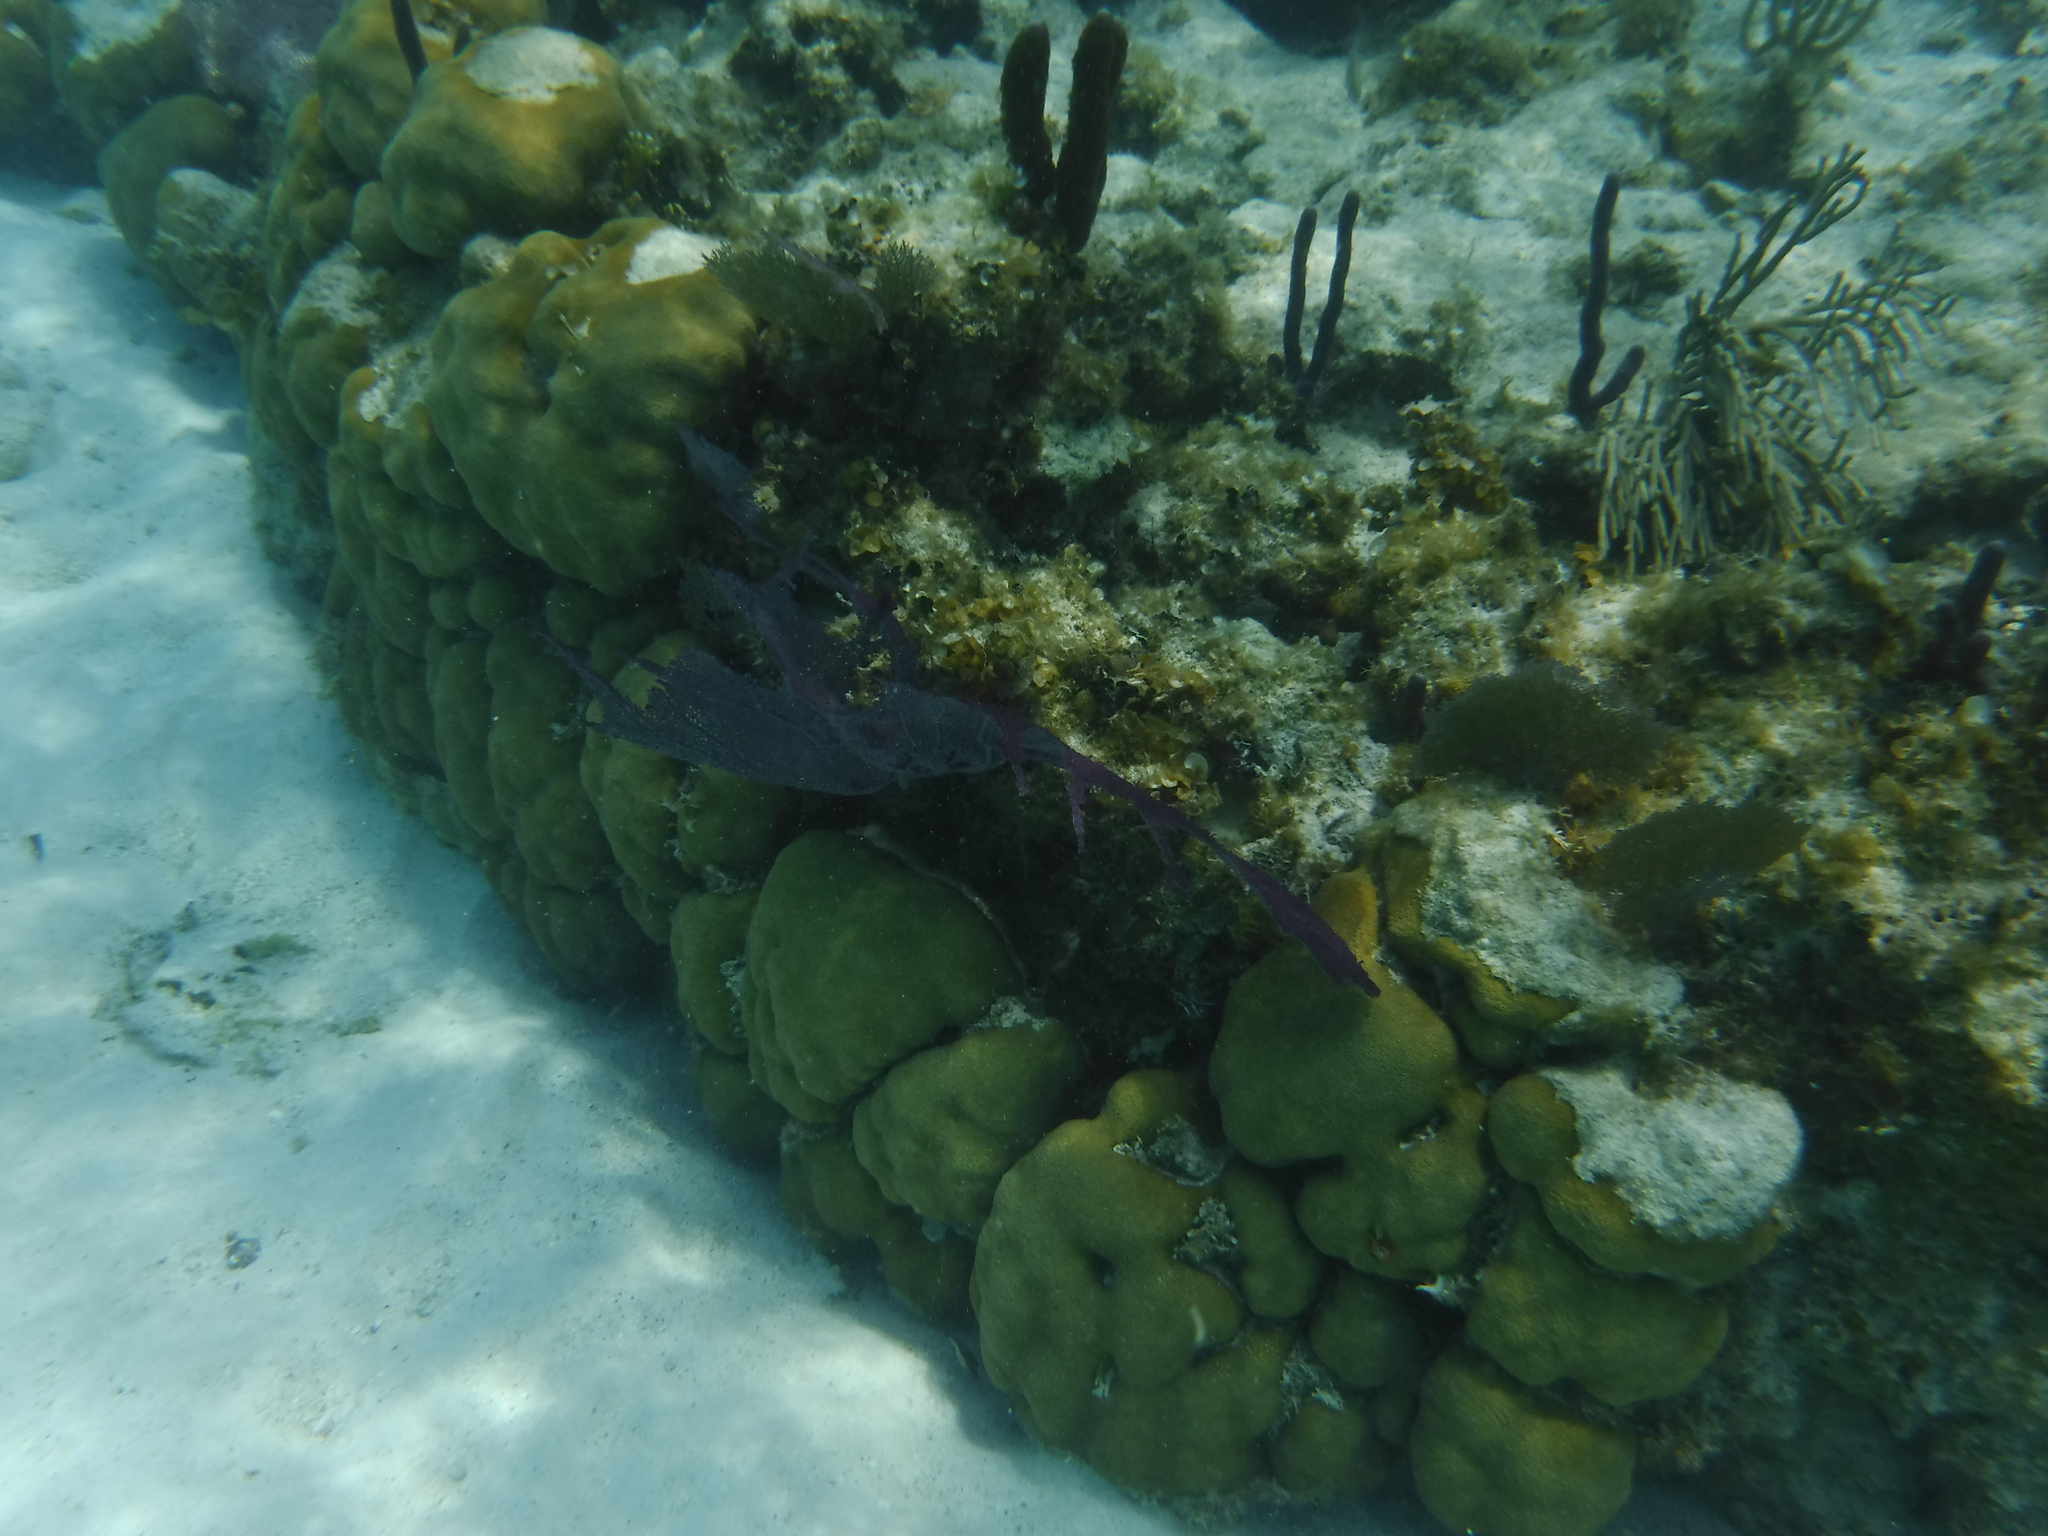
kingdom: Animalia
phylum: Cnidaria
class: Anthozoa
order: Malacalcyonacea
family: Gorgoniidae
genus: Gorgonia
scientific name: Gorgonia
